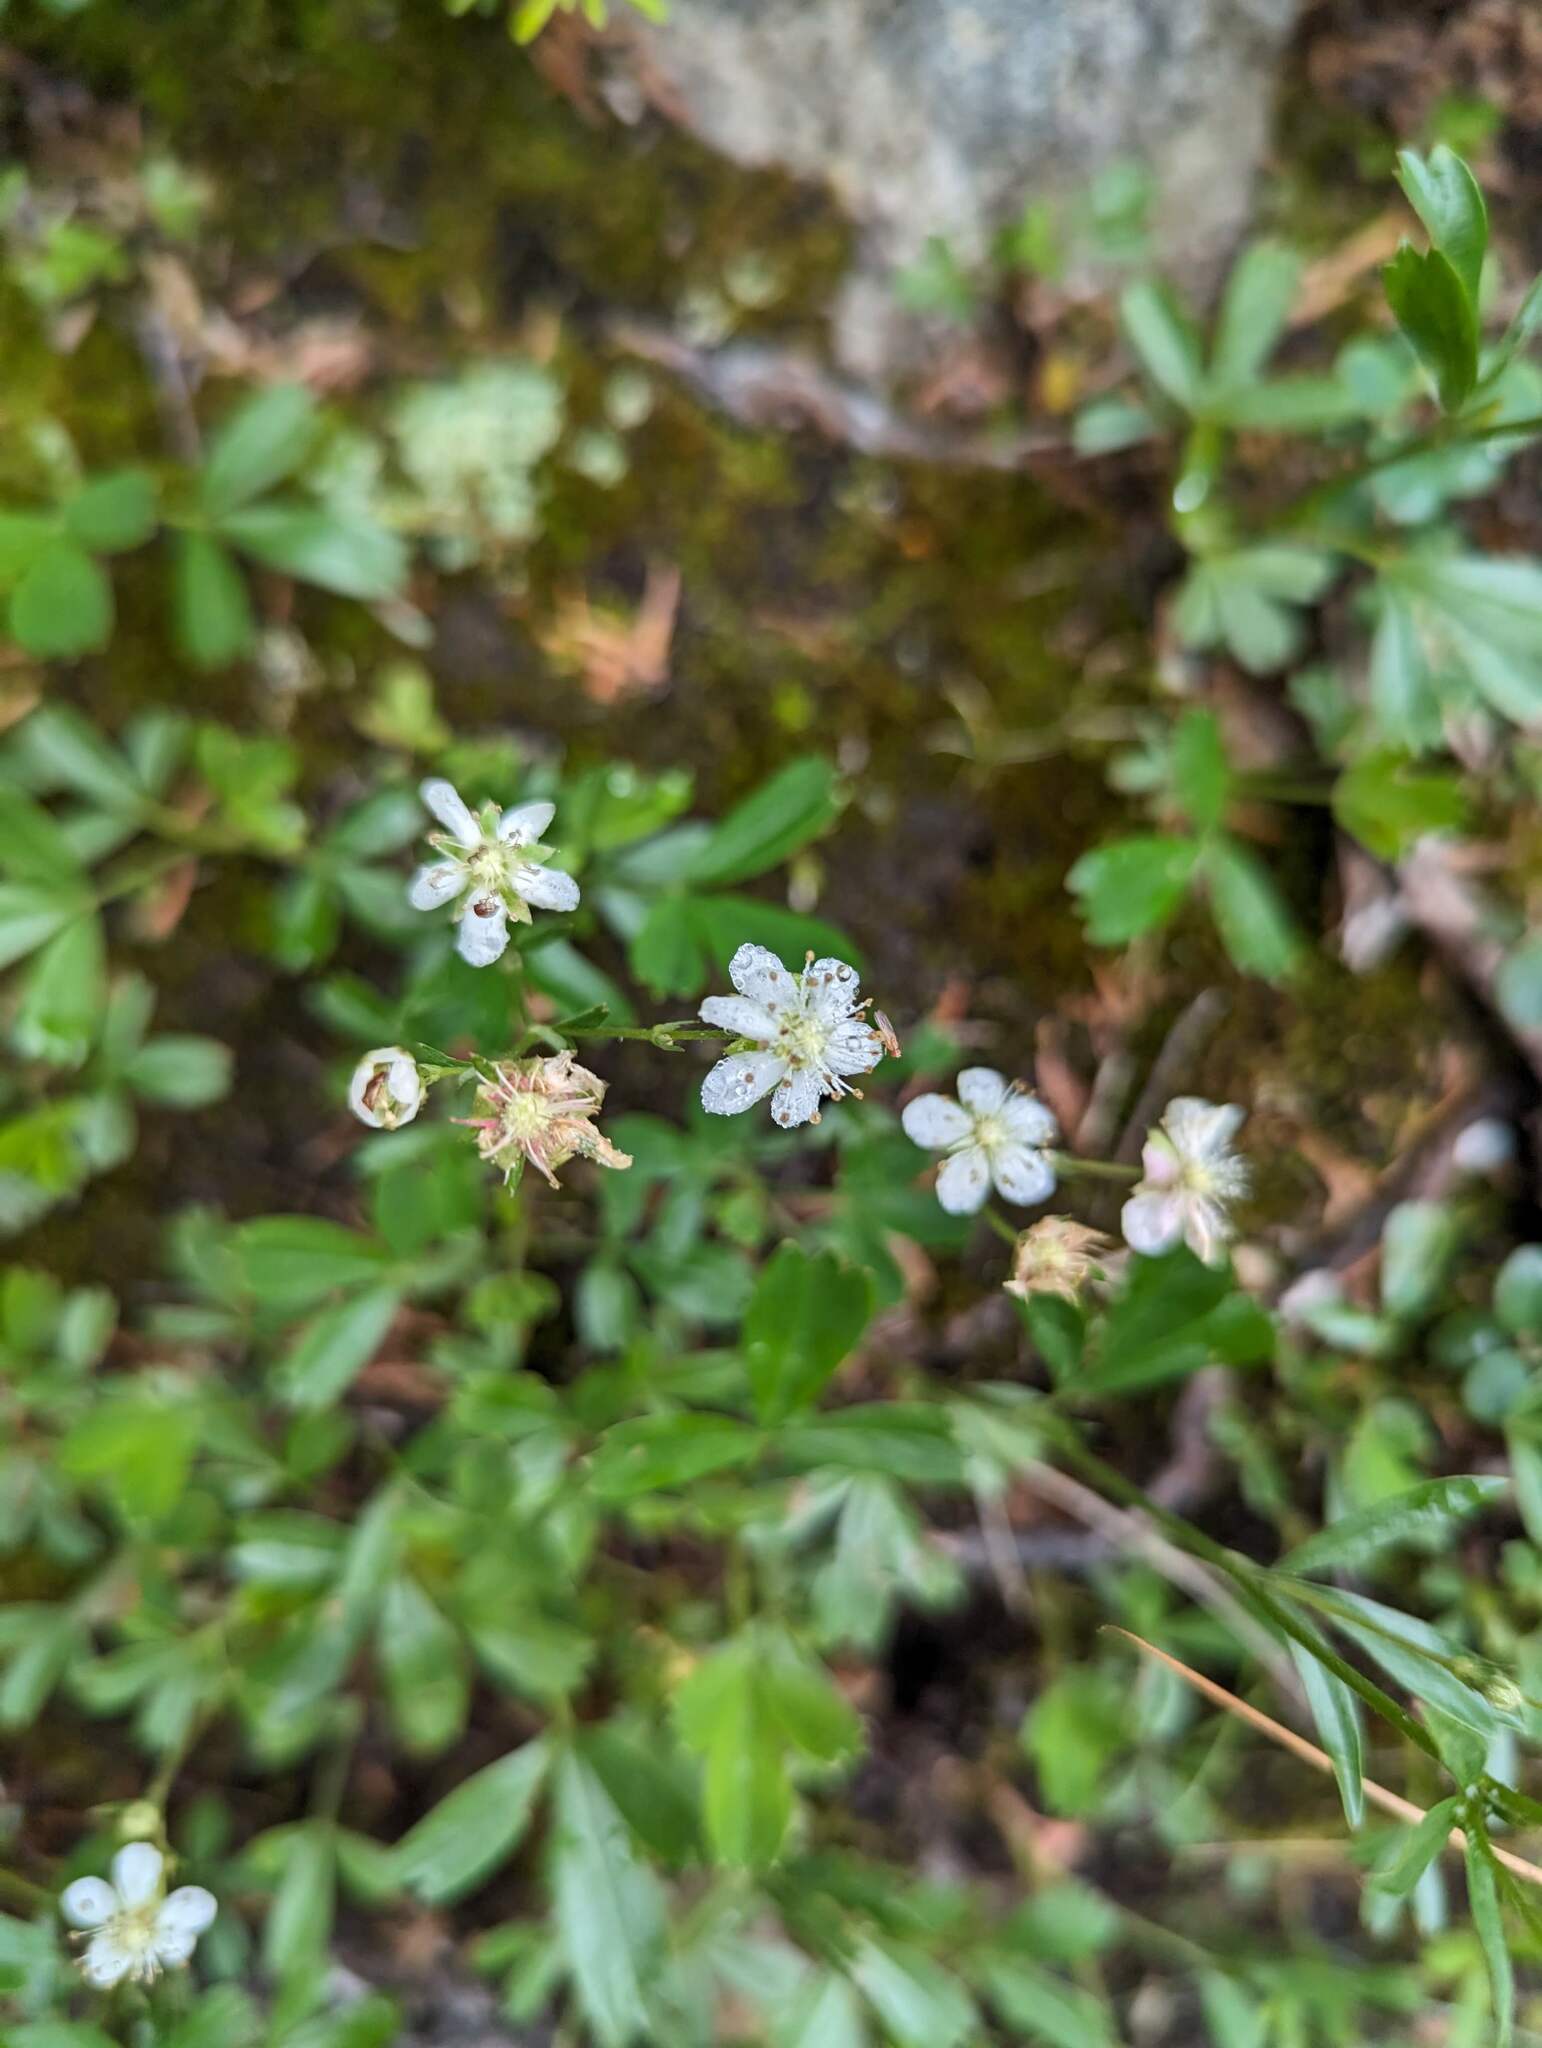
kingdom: Plantae
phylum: Tracheophyta
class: Magnoliopsida
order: Rosales
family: Rosaceae
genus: Sibbaldia
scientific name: Sibbaldia tridentata
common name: Three-toothed cinquefoil
